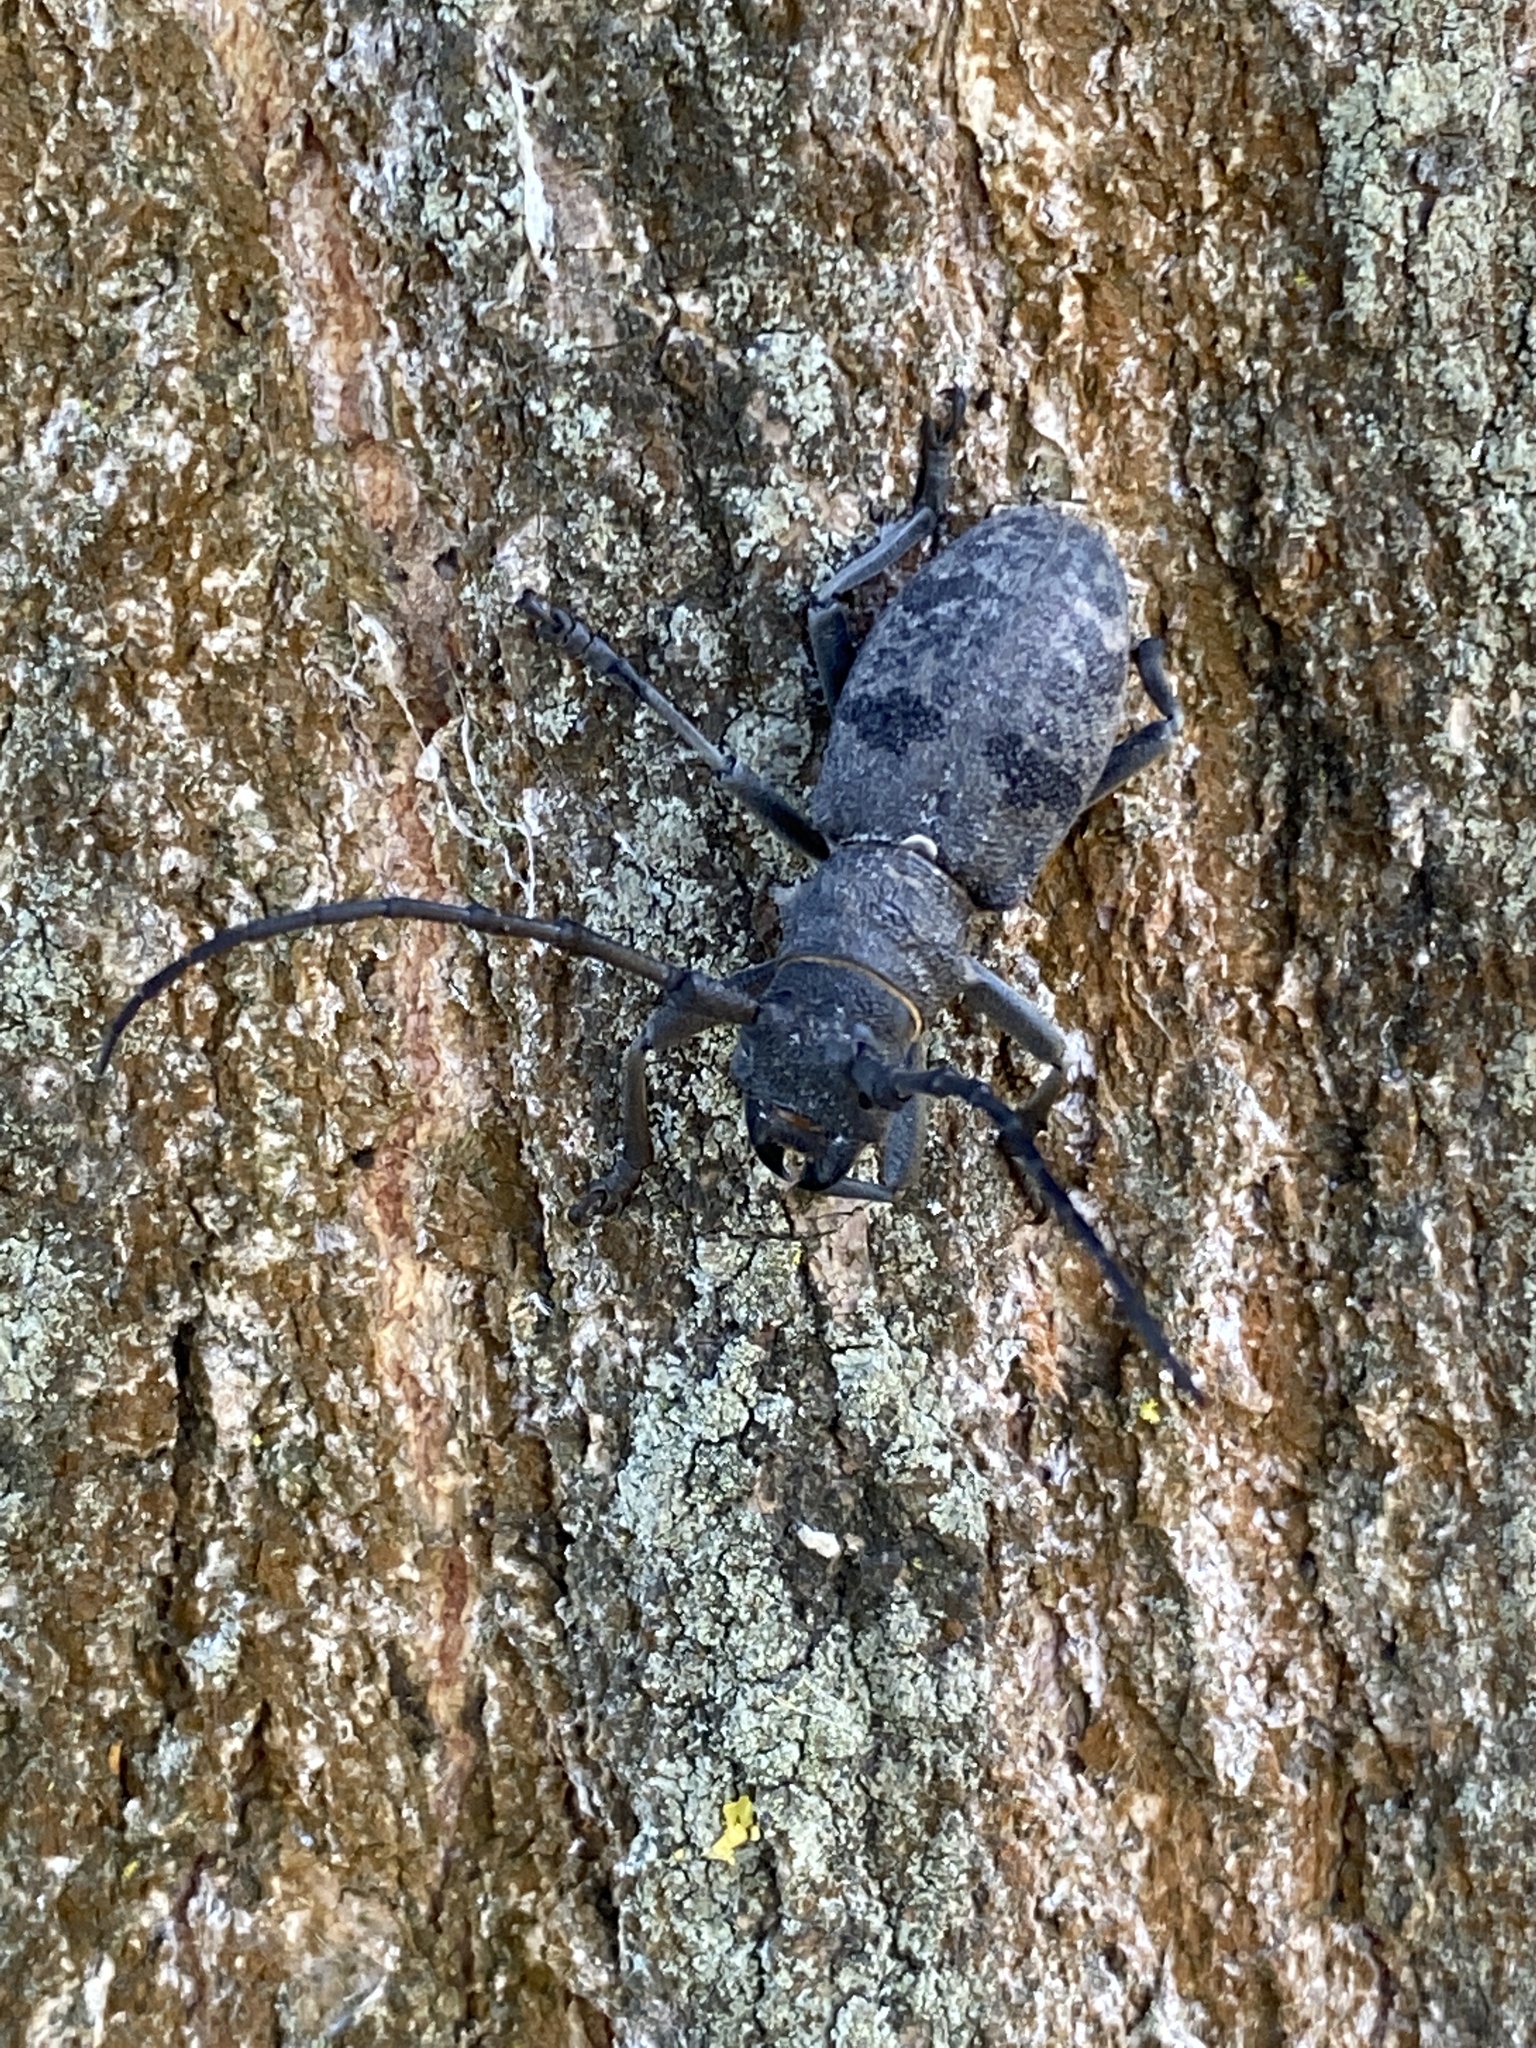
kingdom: Animalia
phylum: Arthropoda
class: Insecta
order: Coleoptera
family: Cerambycidae
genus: Morimus
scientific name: Morimus asper
